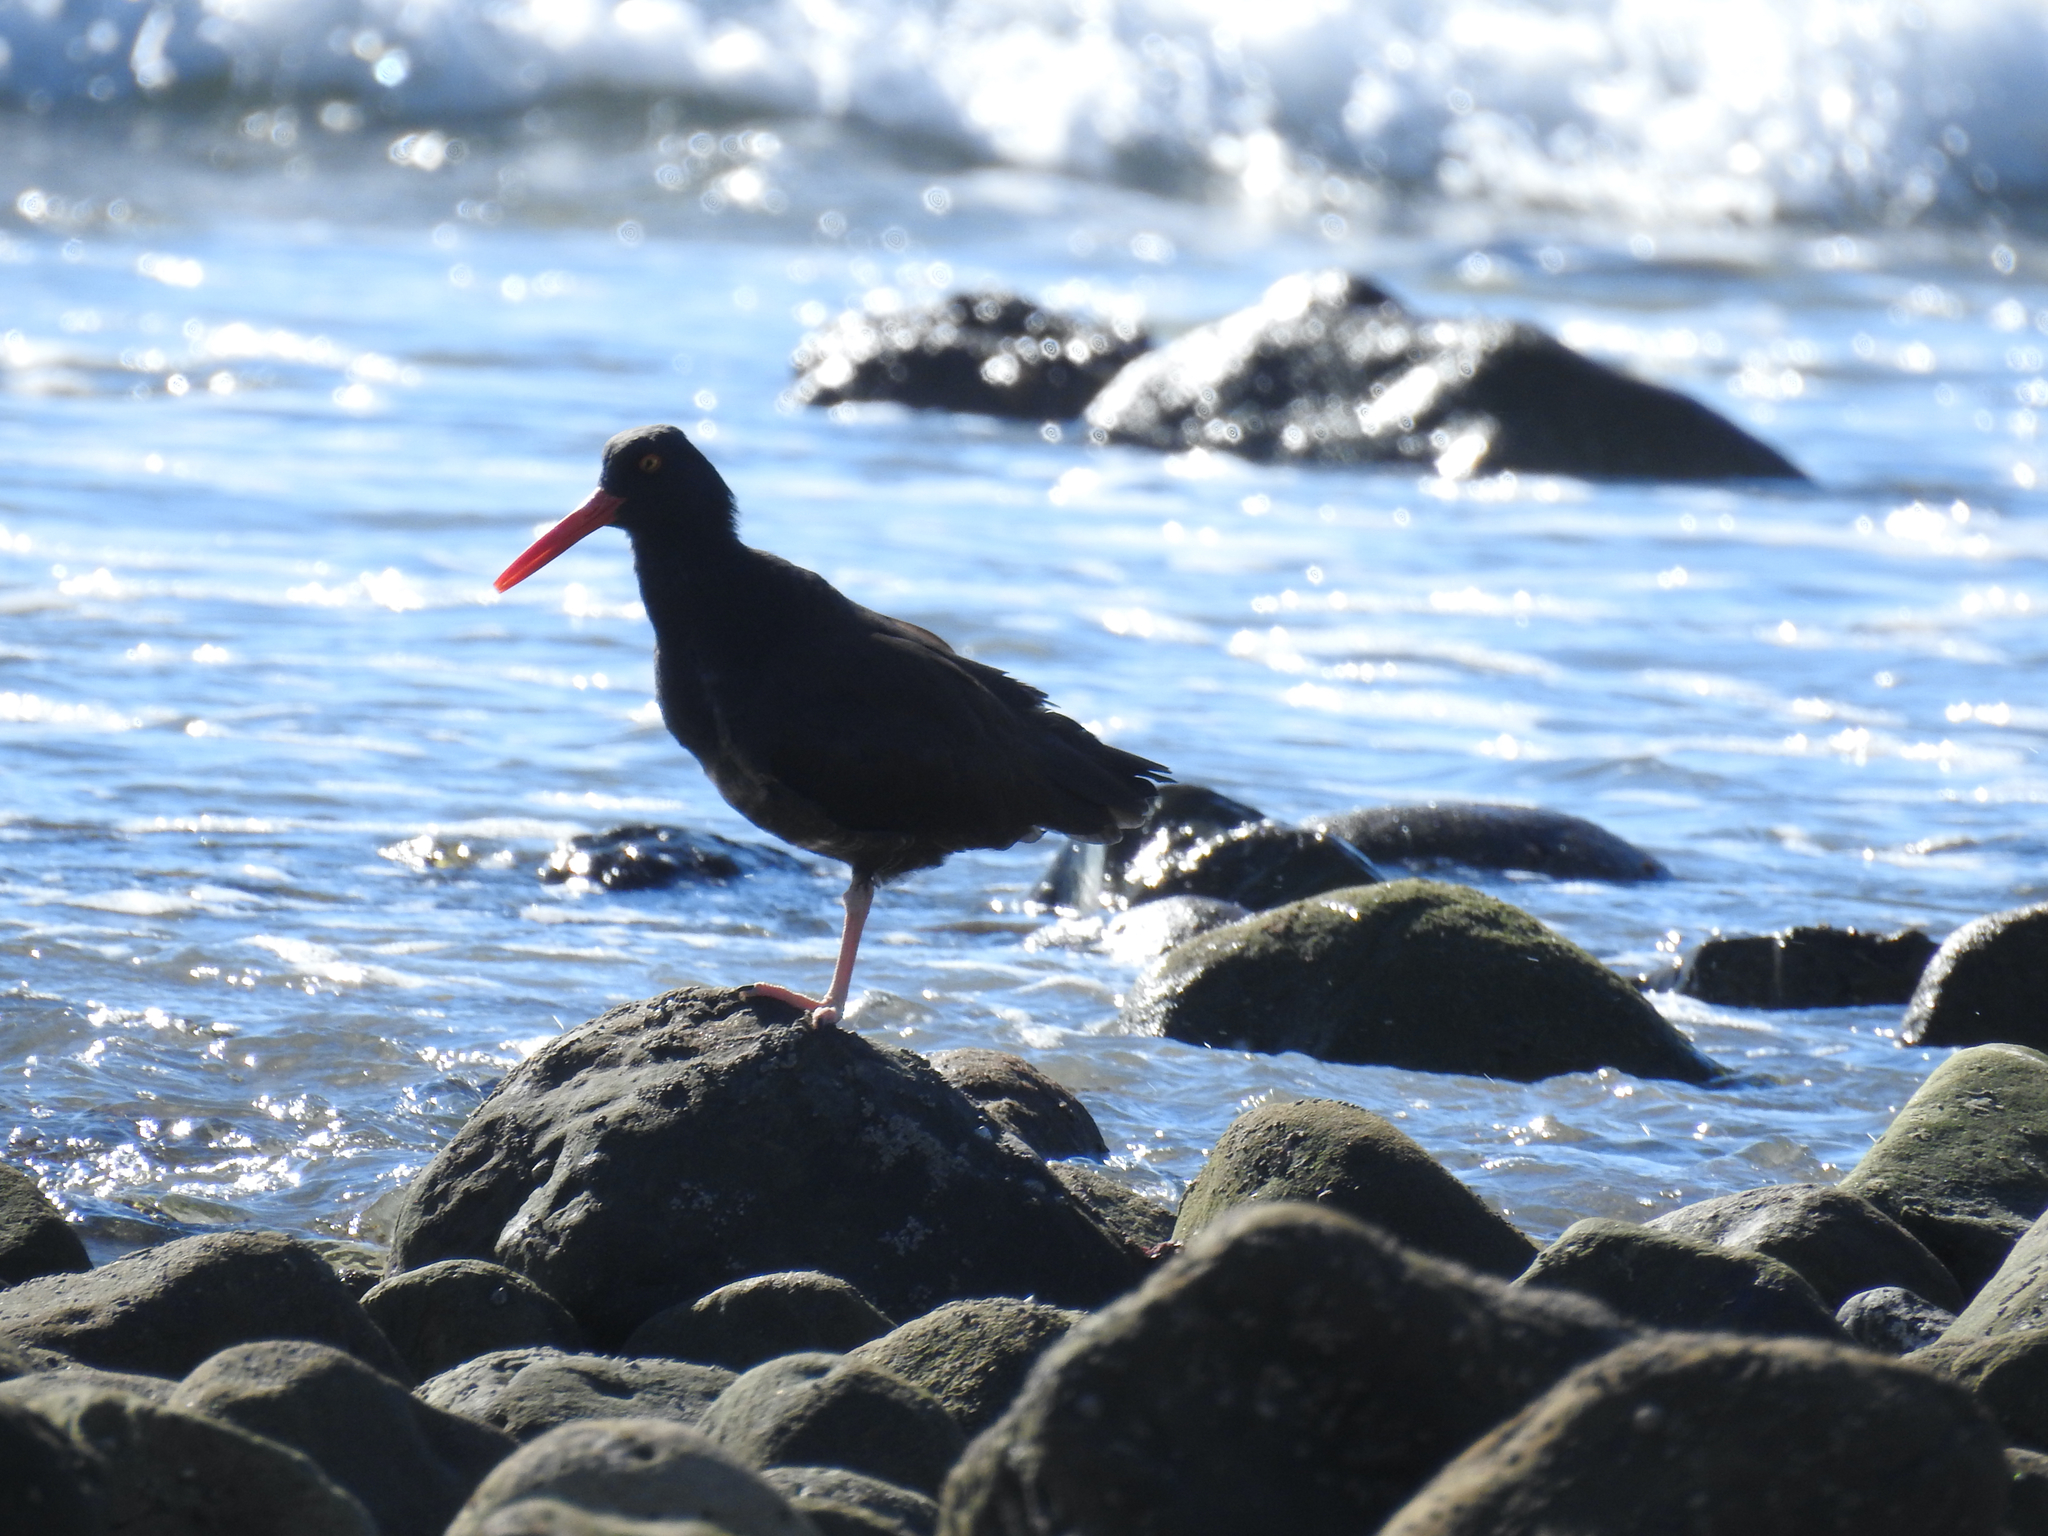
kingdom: Animalia
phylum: Chordata
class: Aves
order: Charadriiformes
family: Haematopodidae
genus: Haematopus
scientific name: Haematopus bachmani
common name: Black oystercatcher
